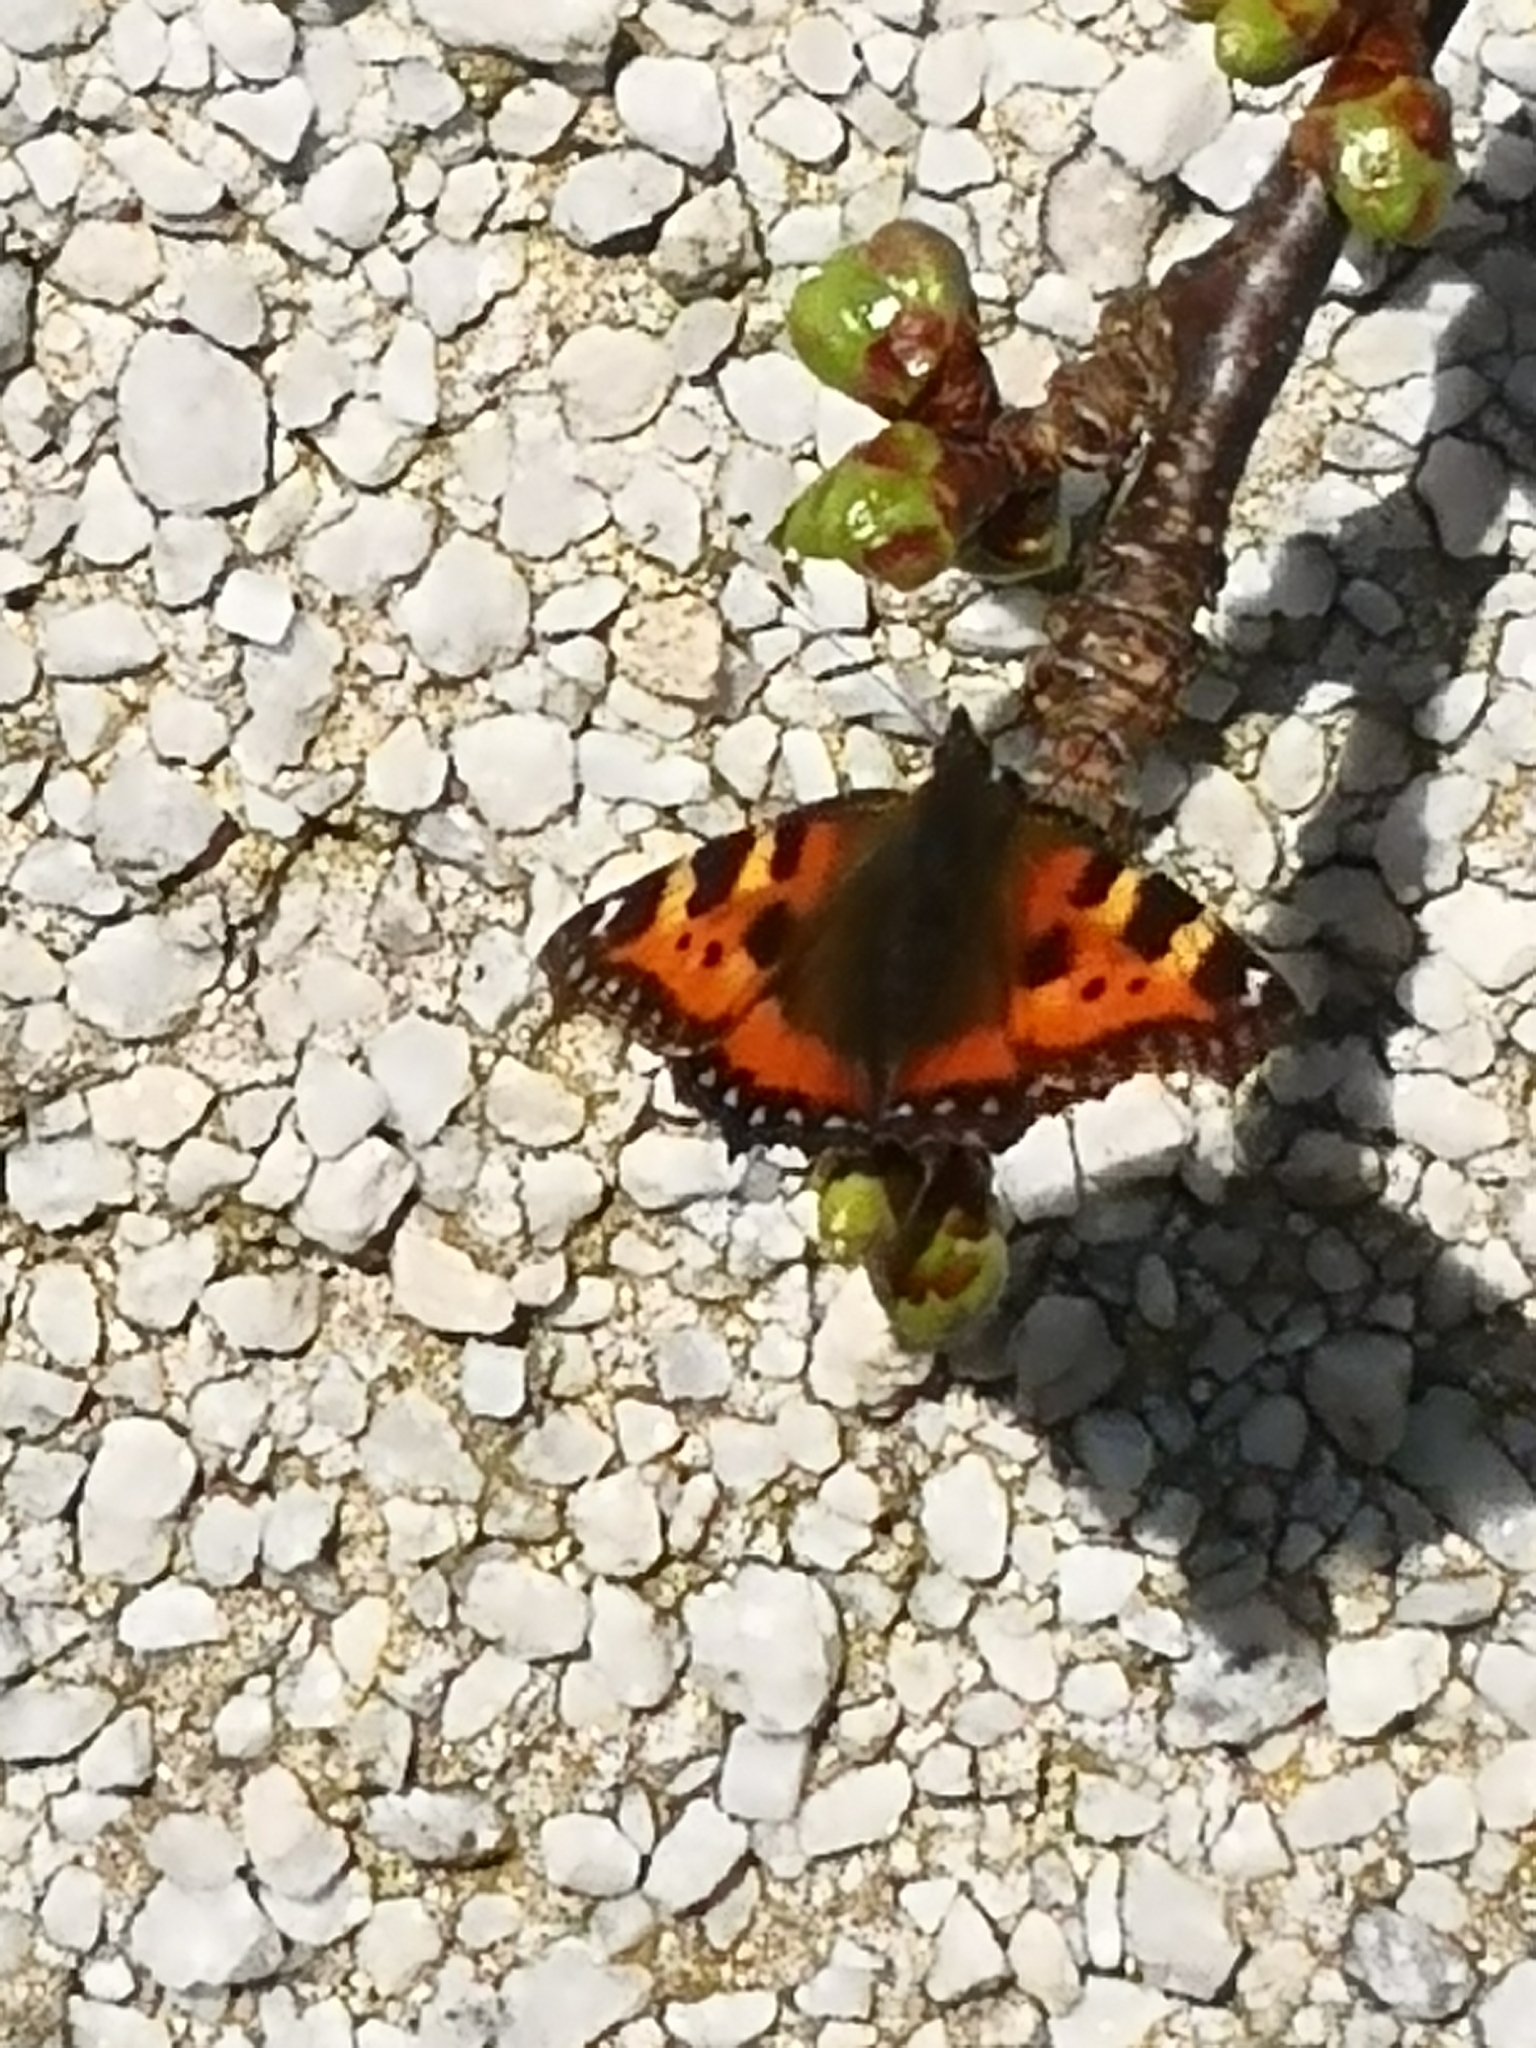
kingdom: Animalia
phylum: Arthropoda
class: Insecta
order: Lepidoptera
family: Nymphalidae
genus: Aglais
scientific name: Aglais urticae
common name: Small tortoiseshell
